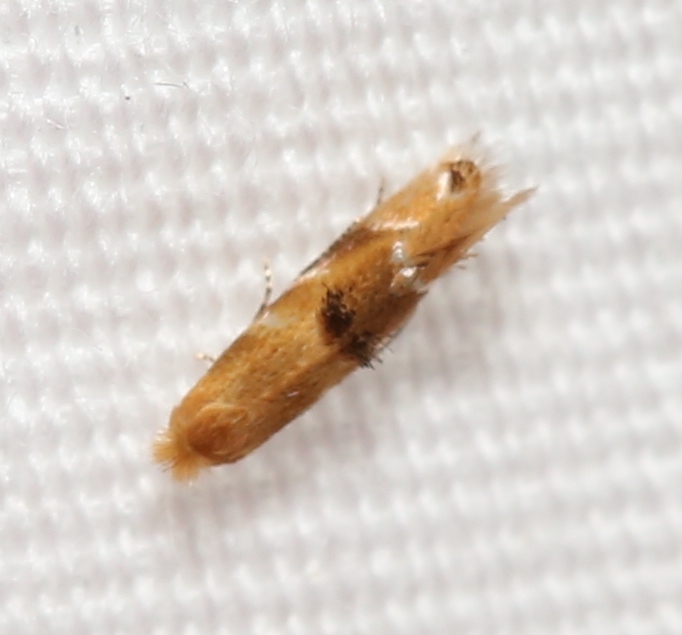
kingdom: Animalia
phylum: Arthropoda
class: Insecta
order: Lepidoptera
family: Bucculatricidae
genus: Bucculatrix
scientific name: Bucculatrix coronatella
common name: Crowned bucculatrix moth
